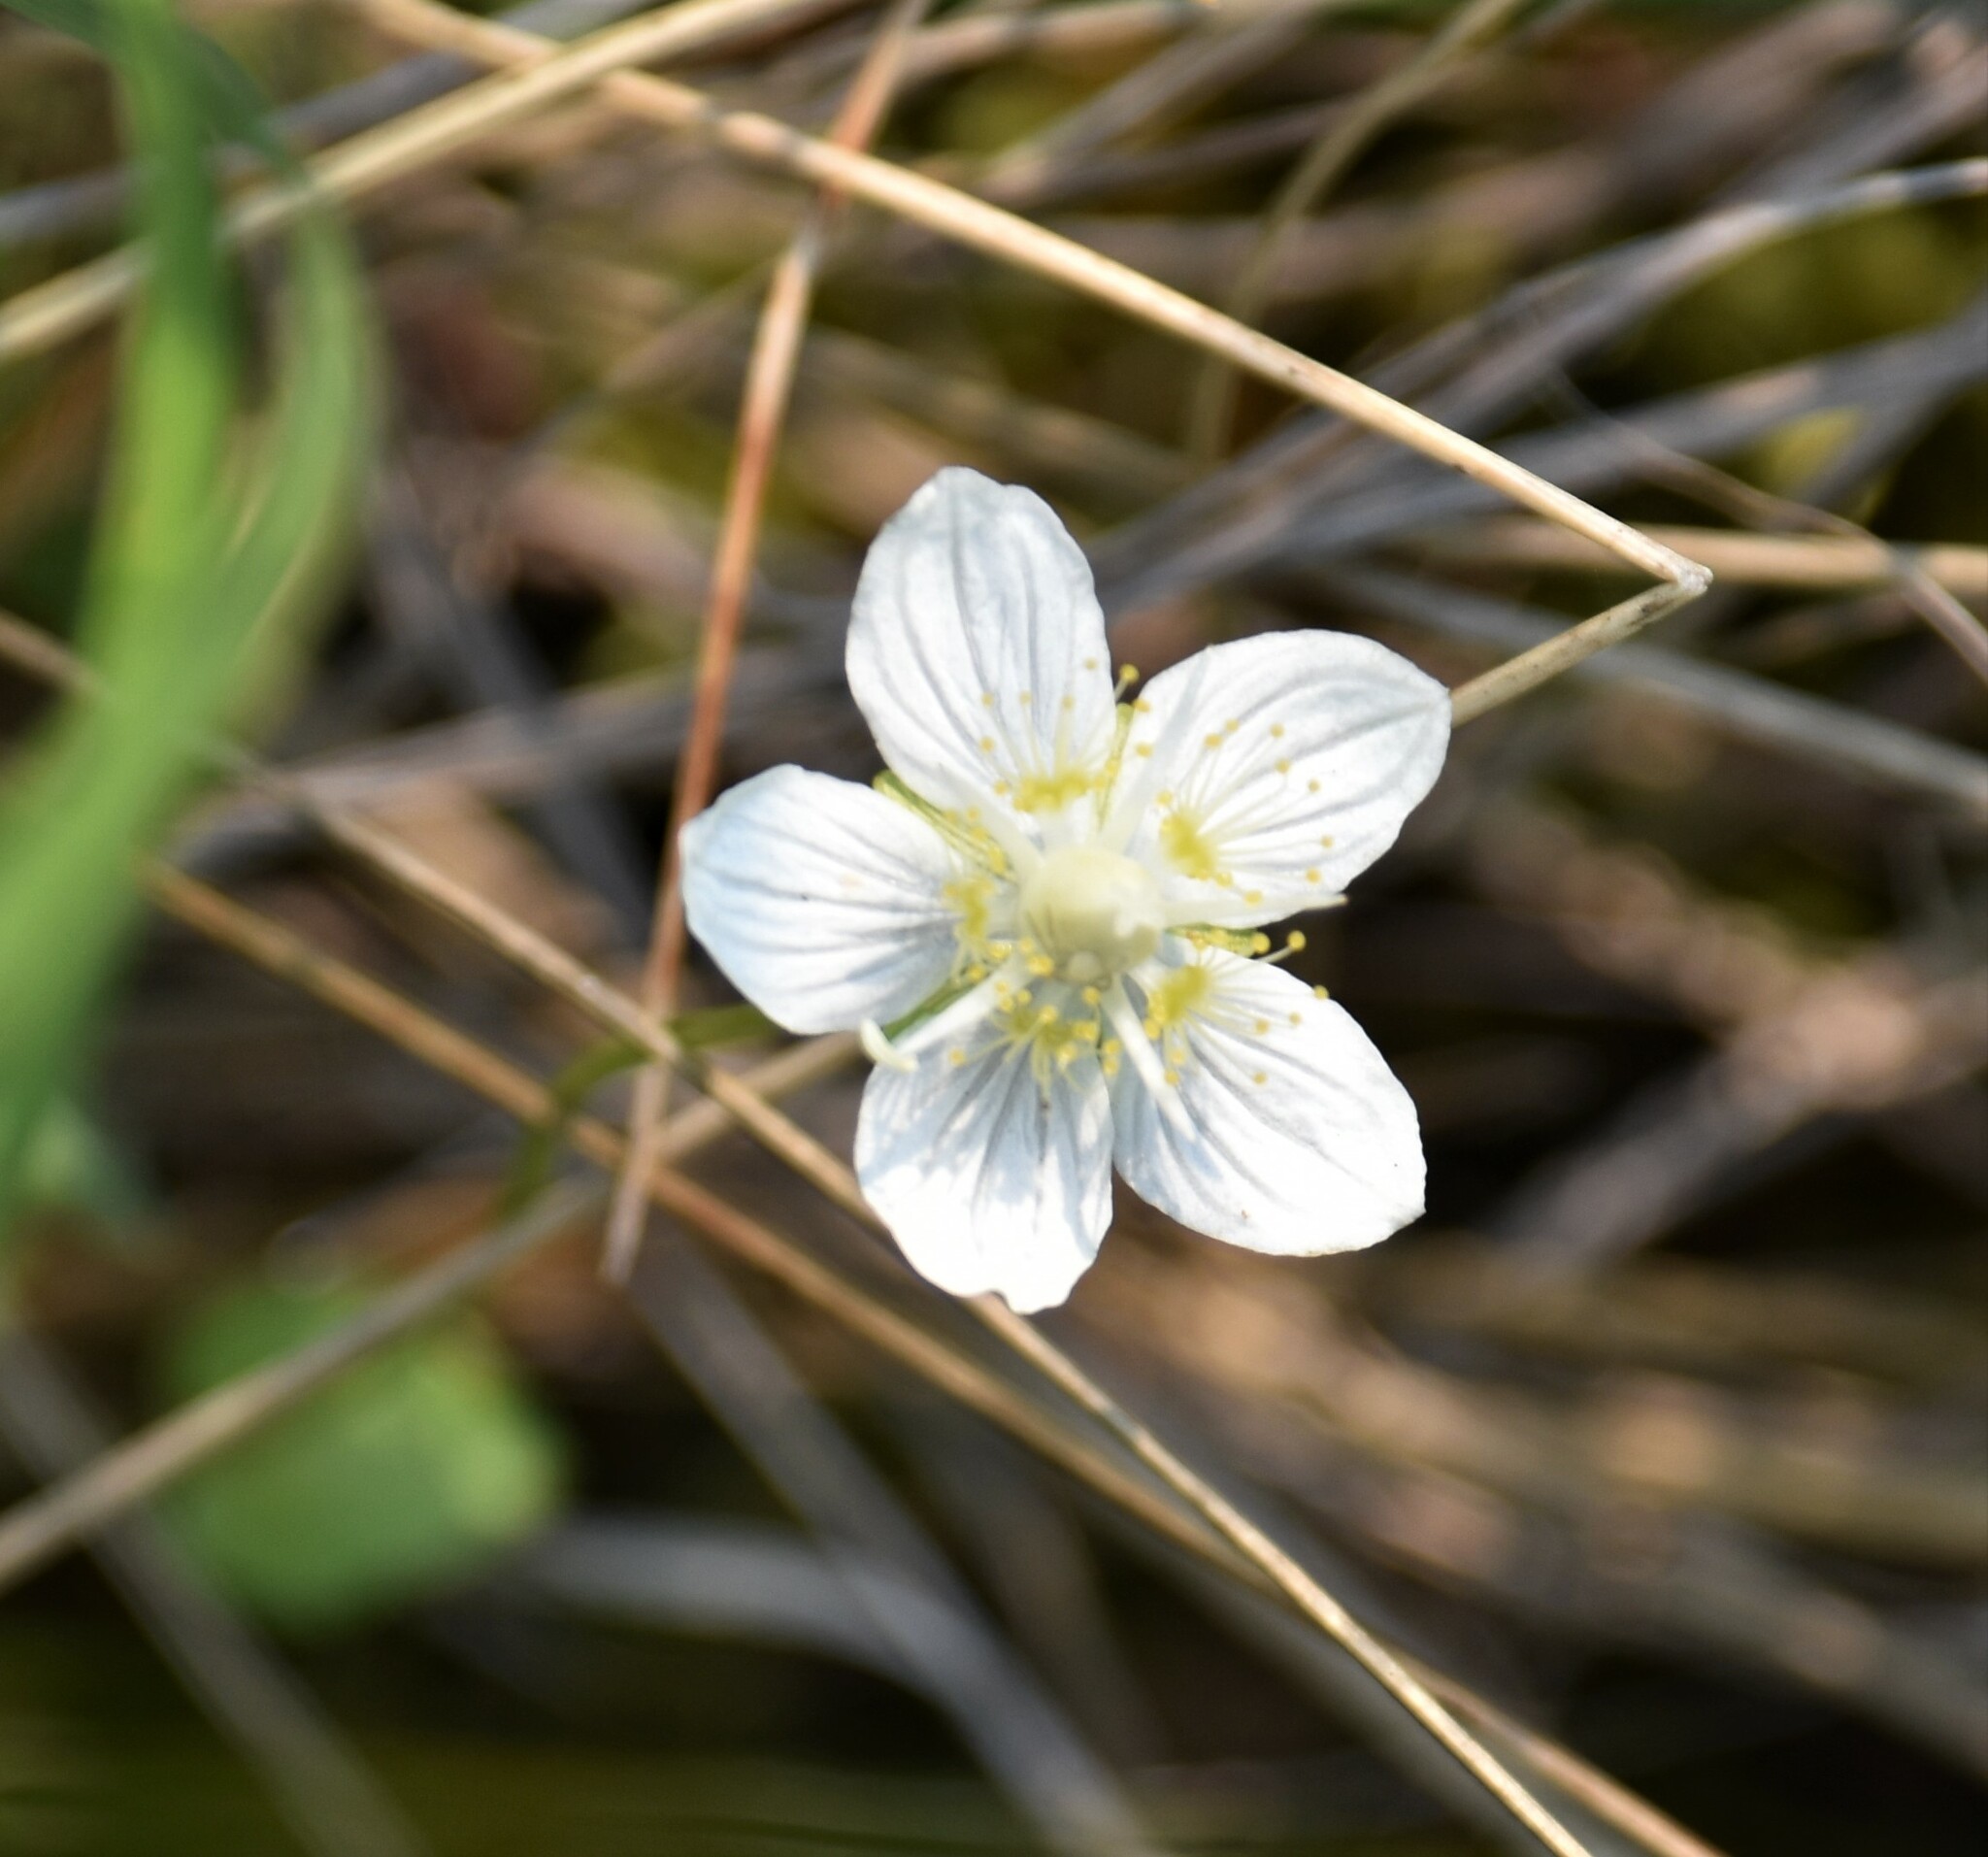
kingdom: Plantae
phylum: Tracheophyta
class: Magnoliopsida
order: Celastrales
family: Parnassiaceae
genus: Parnassia
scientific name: Parnassia palustris
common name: Grass-of-parnassus
